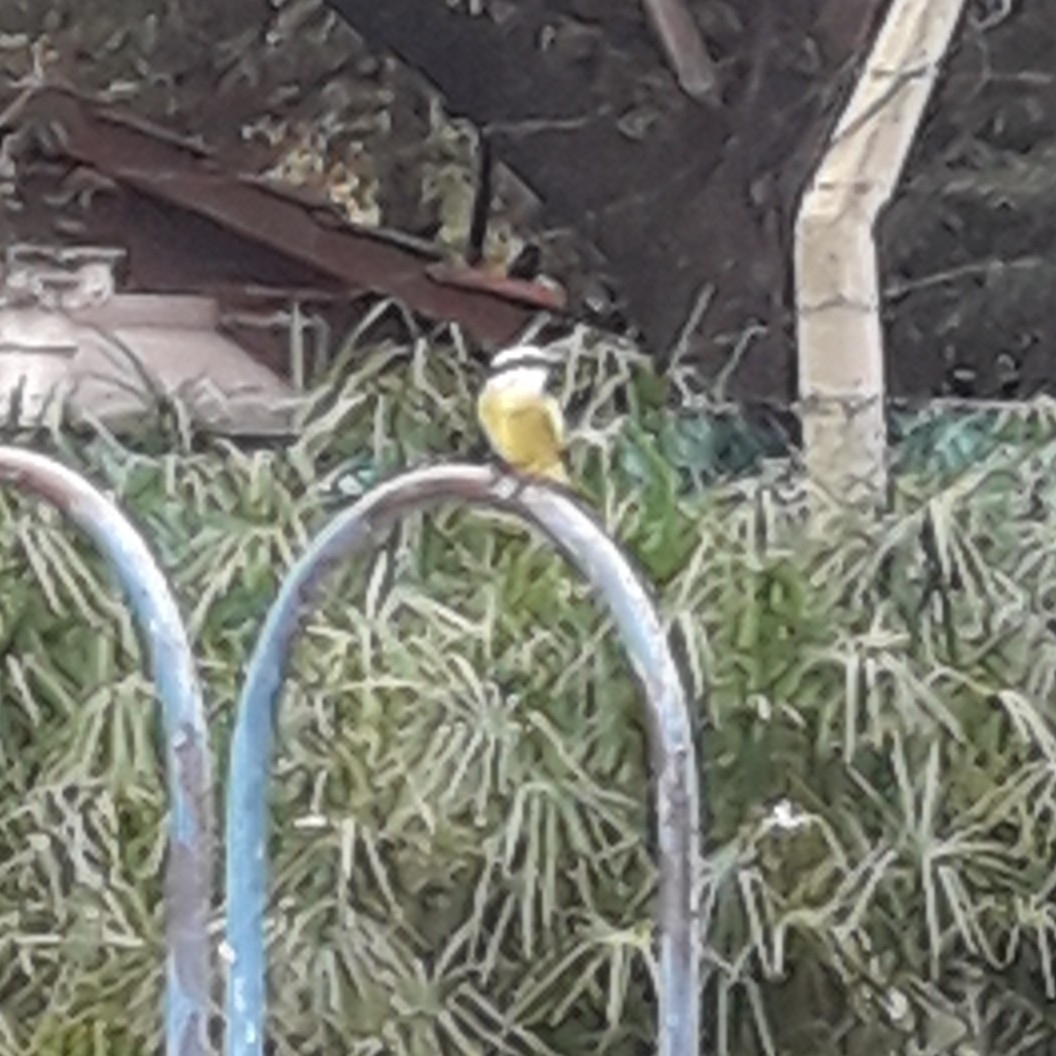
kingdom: Animalia
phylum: Chordata
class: Aves
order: Passeriformes
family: Tyrannidae
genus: Pitangus
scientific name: Pitangus sulphuratus
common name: Great kiskadee
